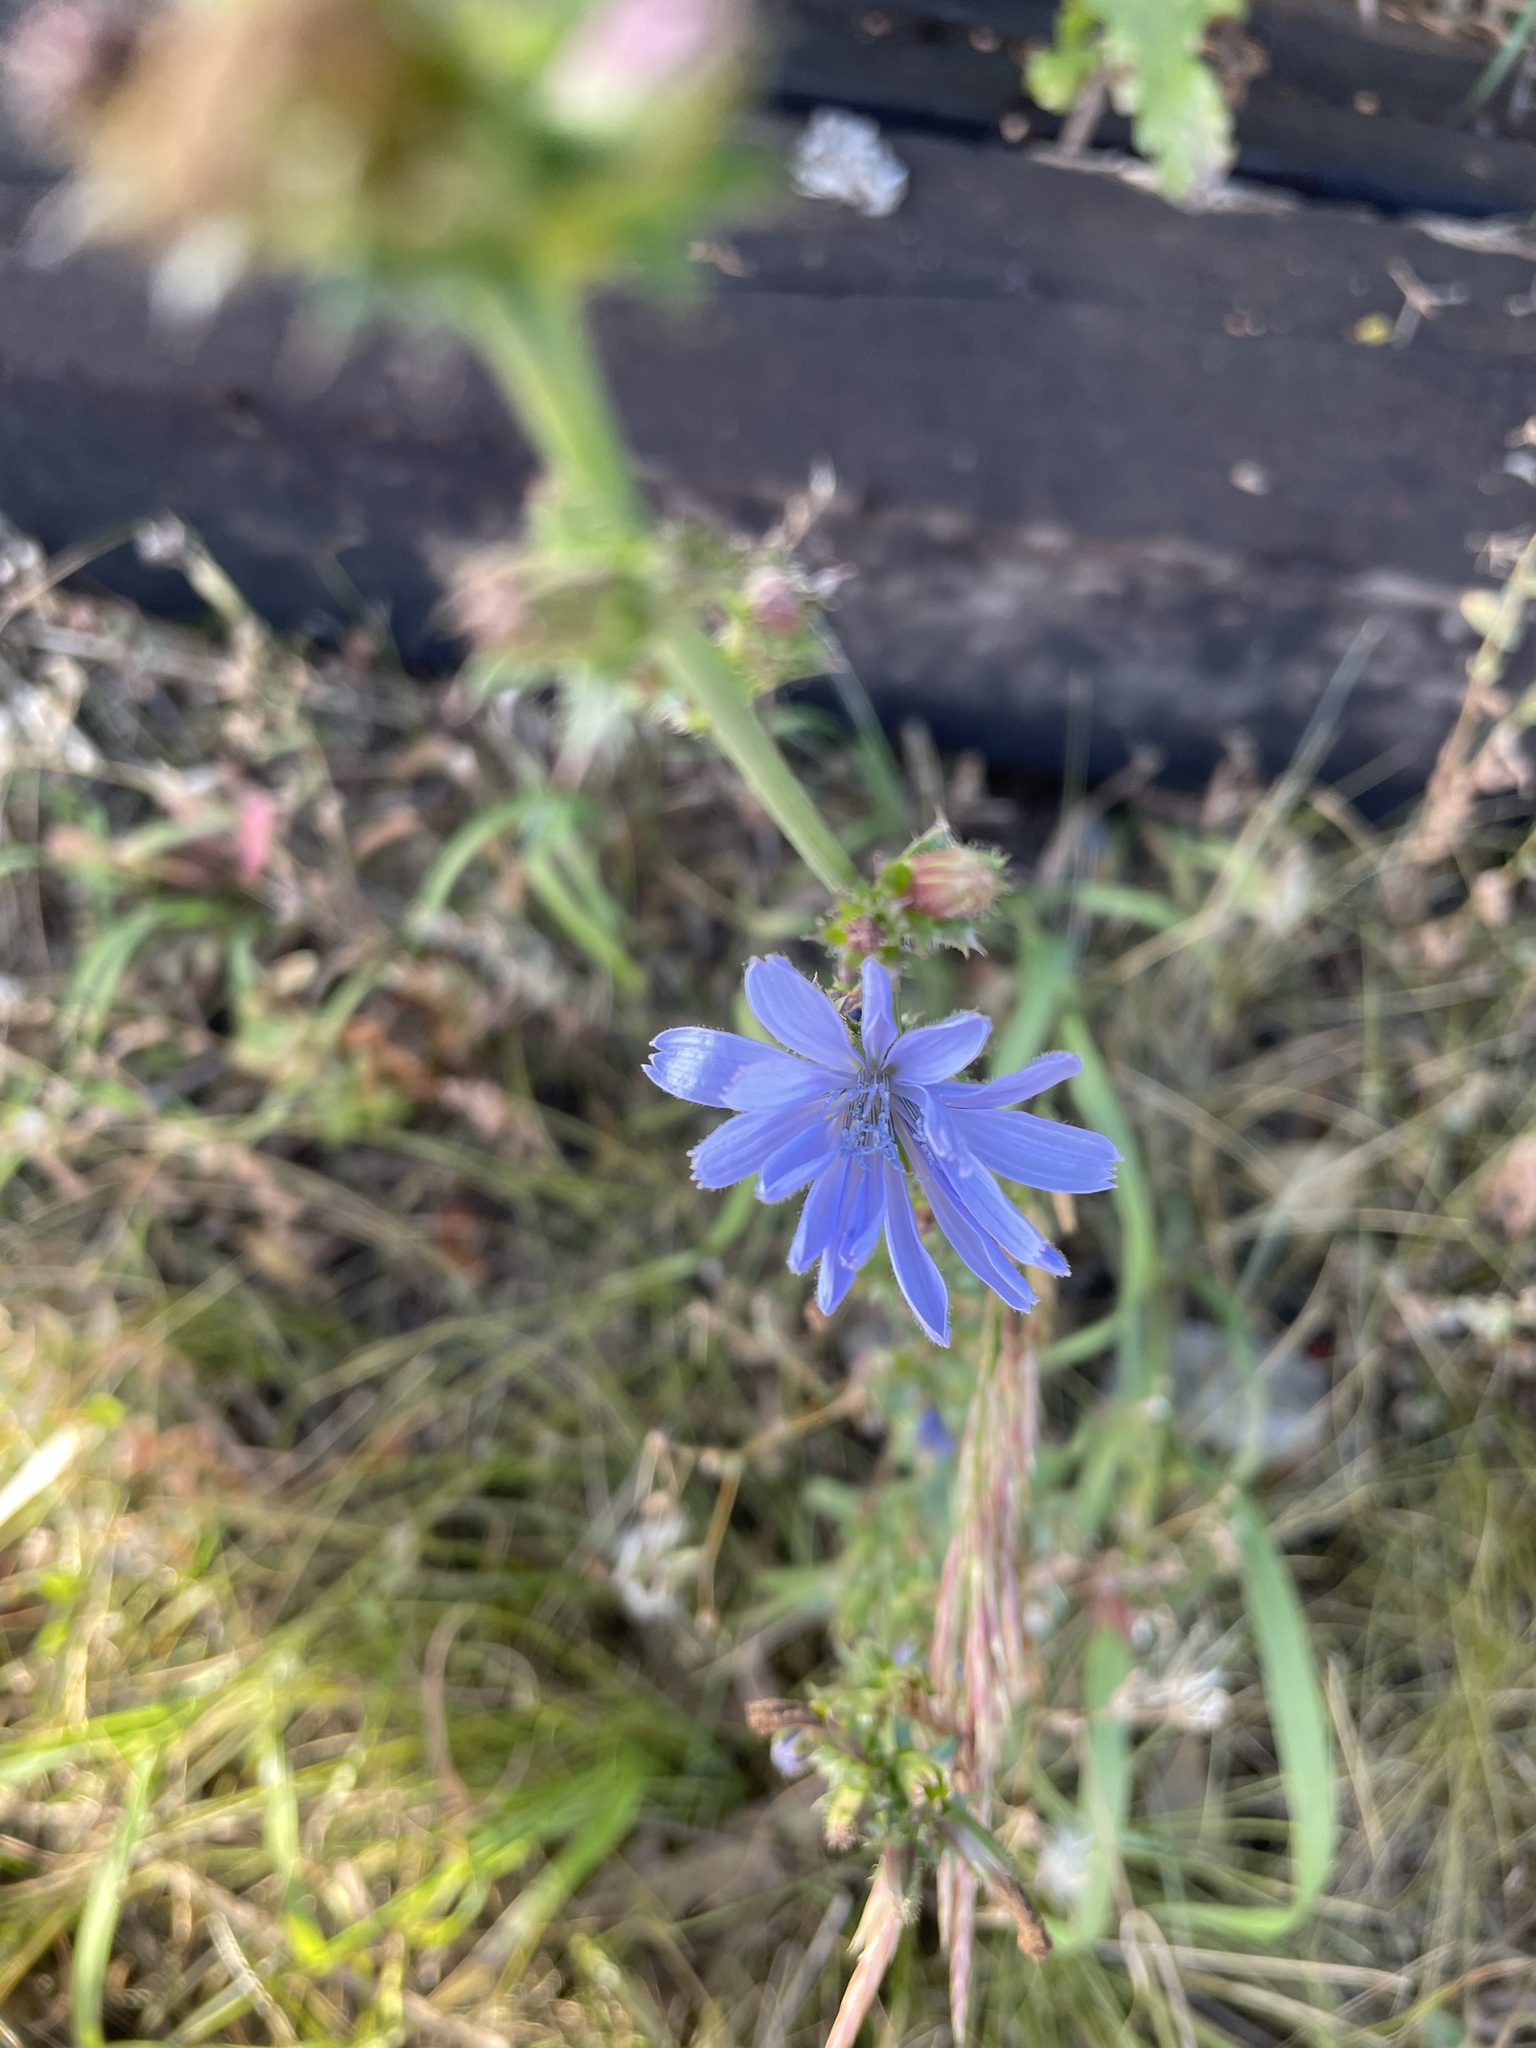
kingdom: Plantae
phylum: Tracheophyta
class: Magnoliopsida
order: Asterales
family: Asteraceae
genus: Cichorium
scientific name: Cichorium intybus
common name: Chicory
